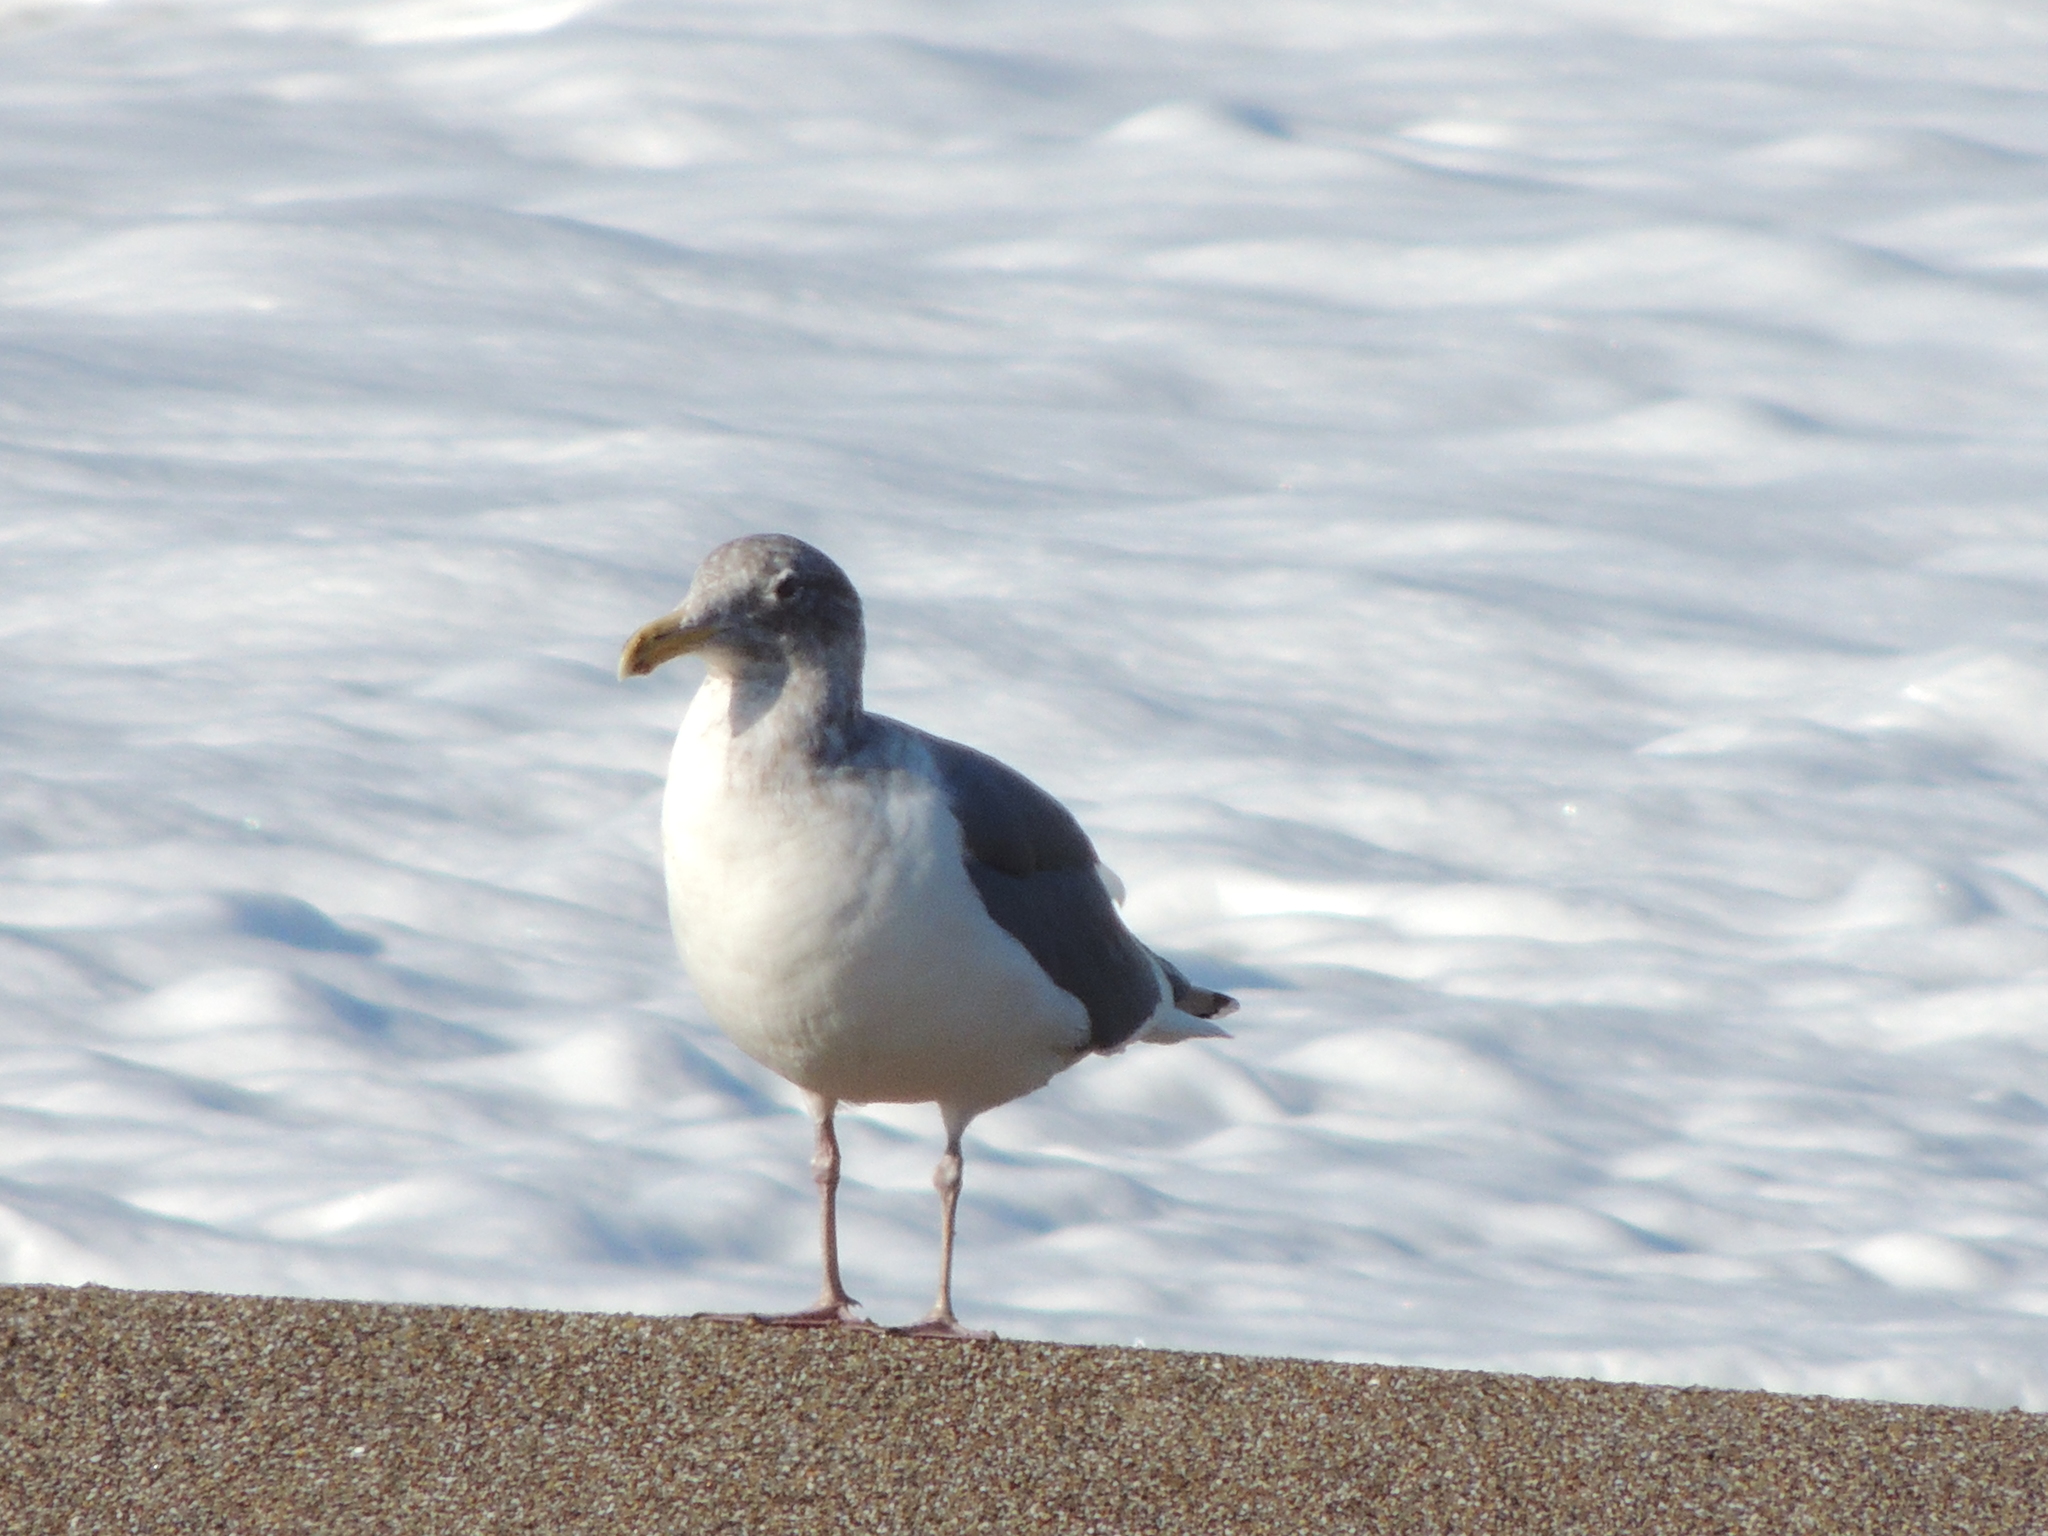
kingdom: Animalia
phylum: Chordata
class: Aves
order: Charadriiformes
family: Laridae
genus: Larus
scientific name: Larus
